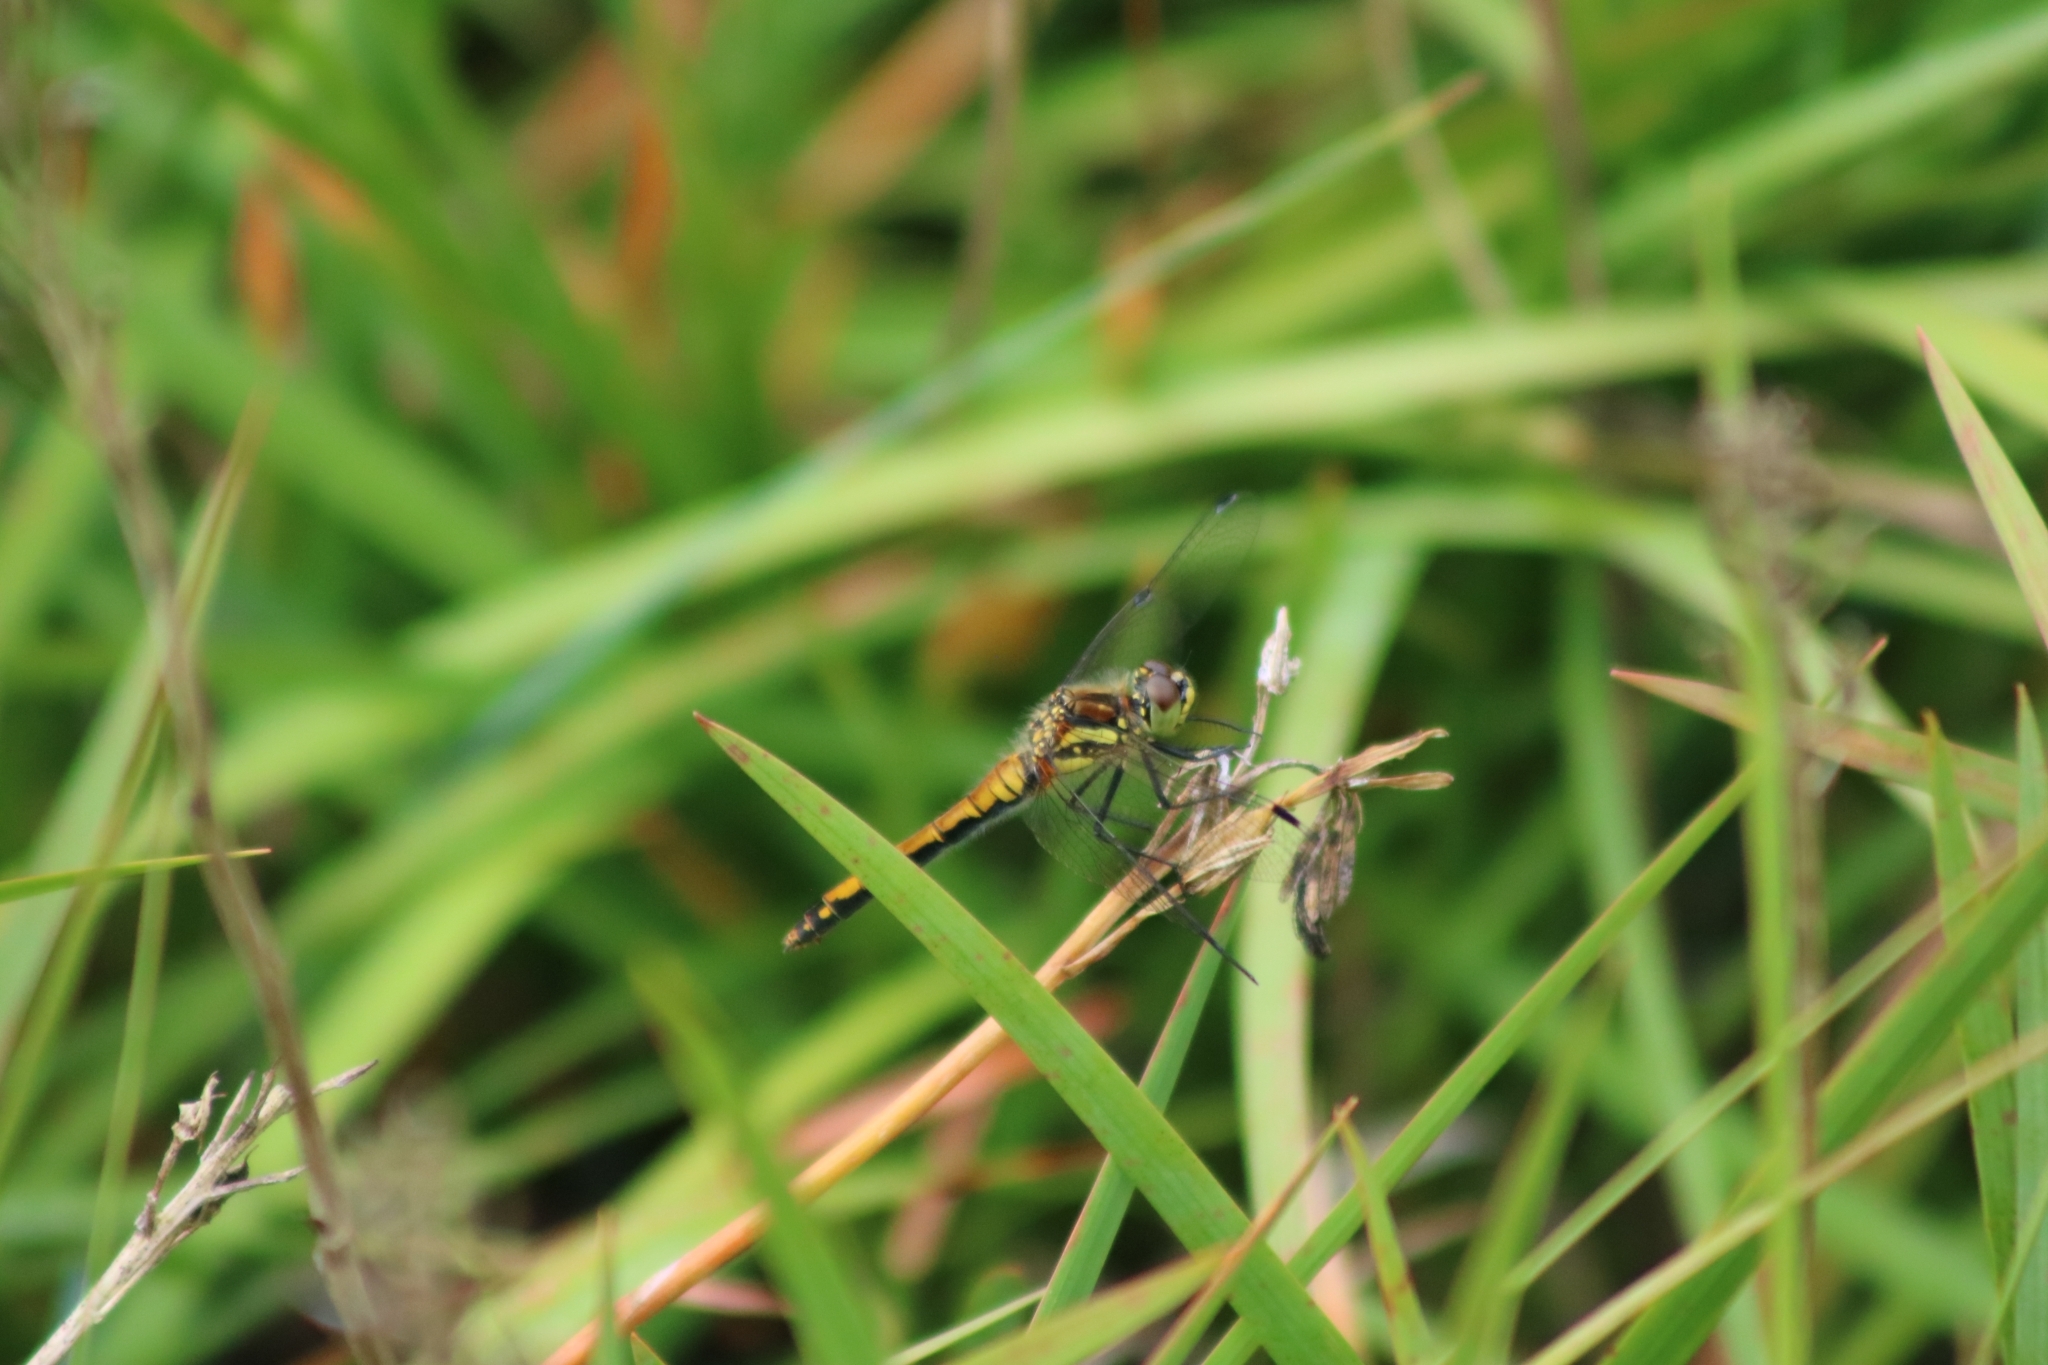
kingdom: Animalia
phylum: Arthropoda
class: Insecta
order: Odonata
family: Libellulidae
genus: Sympetrum
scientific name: Sympetrum danae
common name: Black darter
